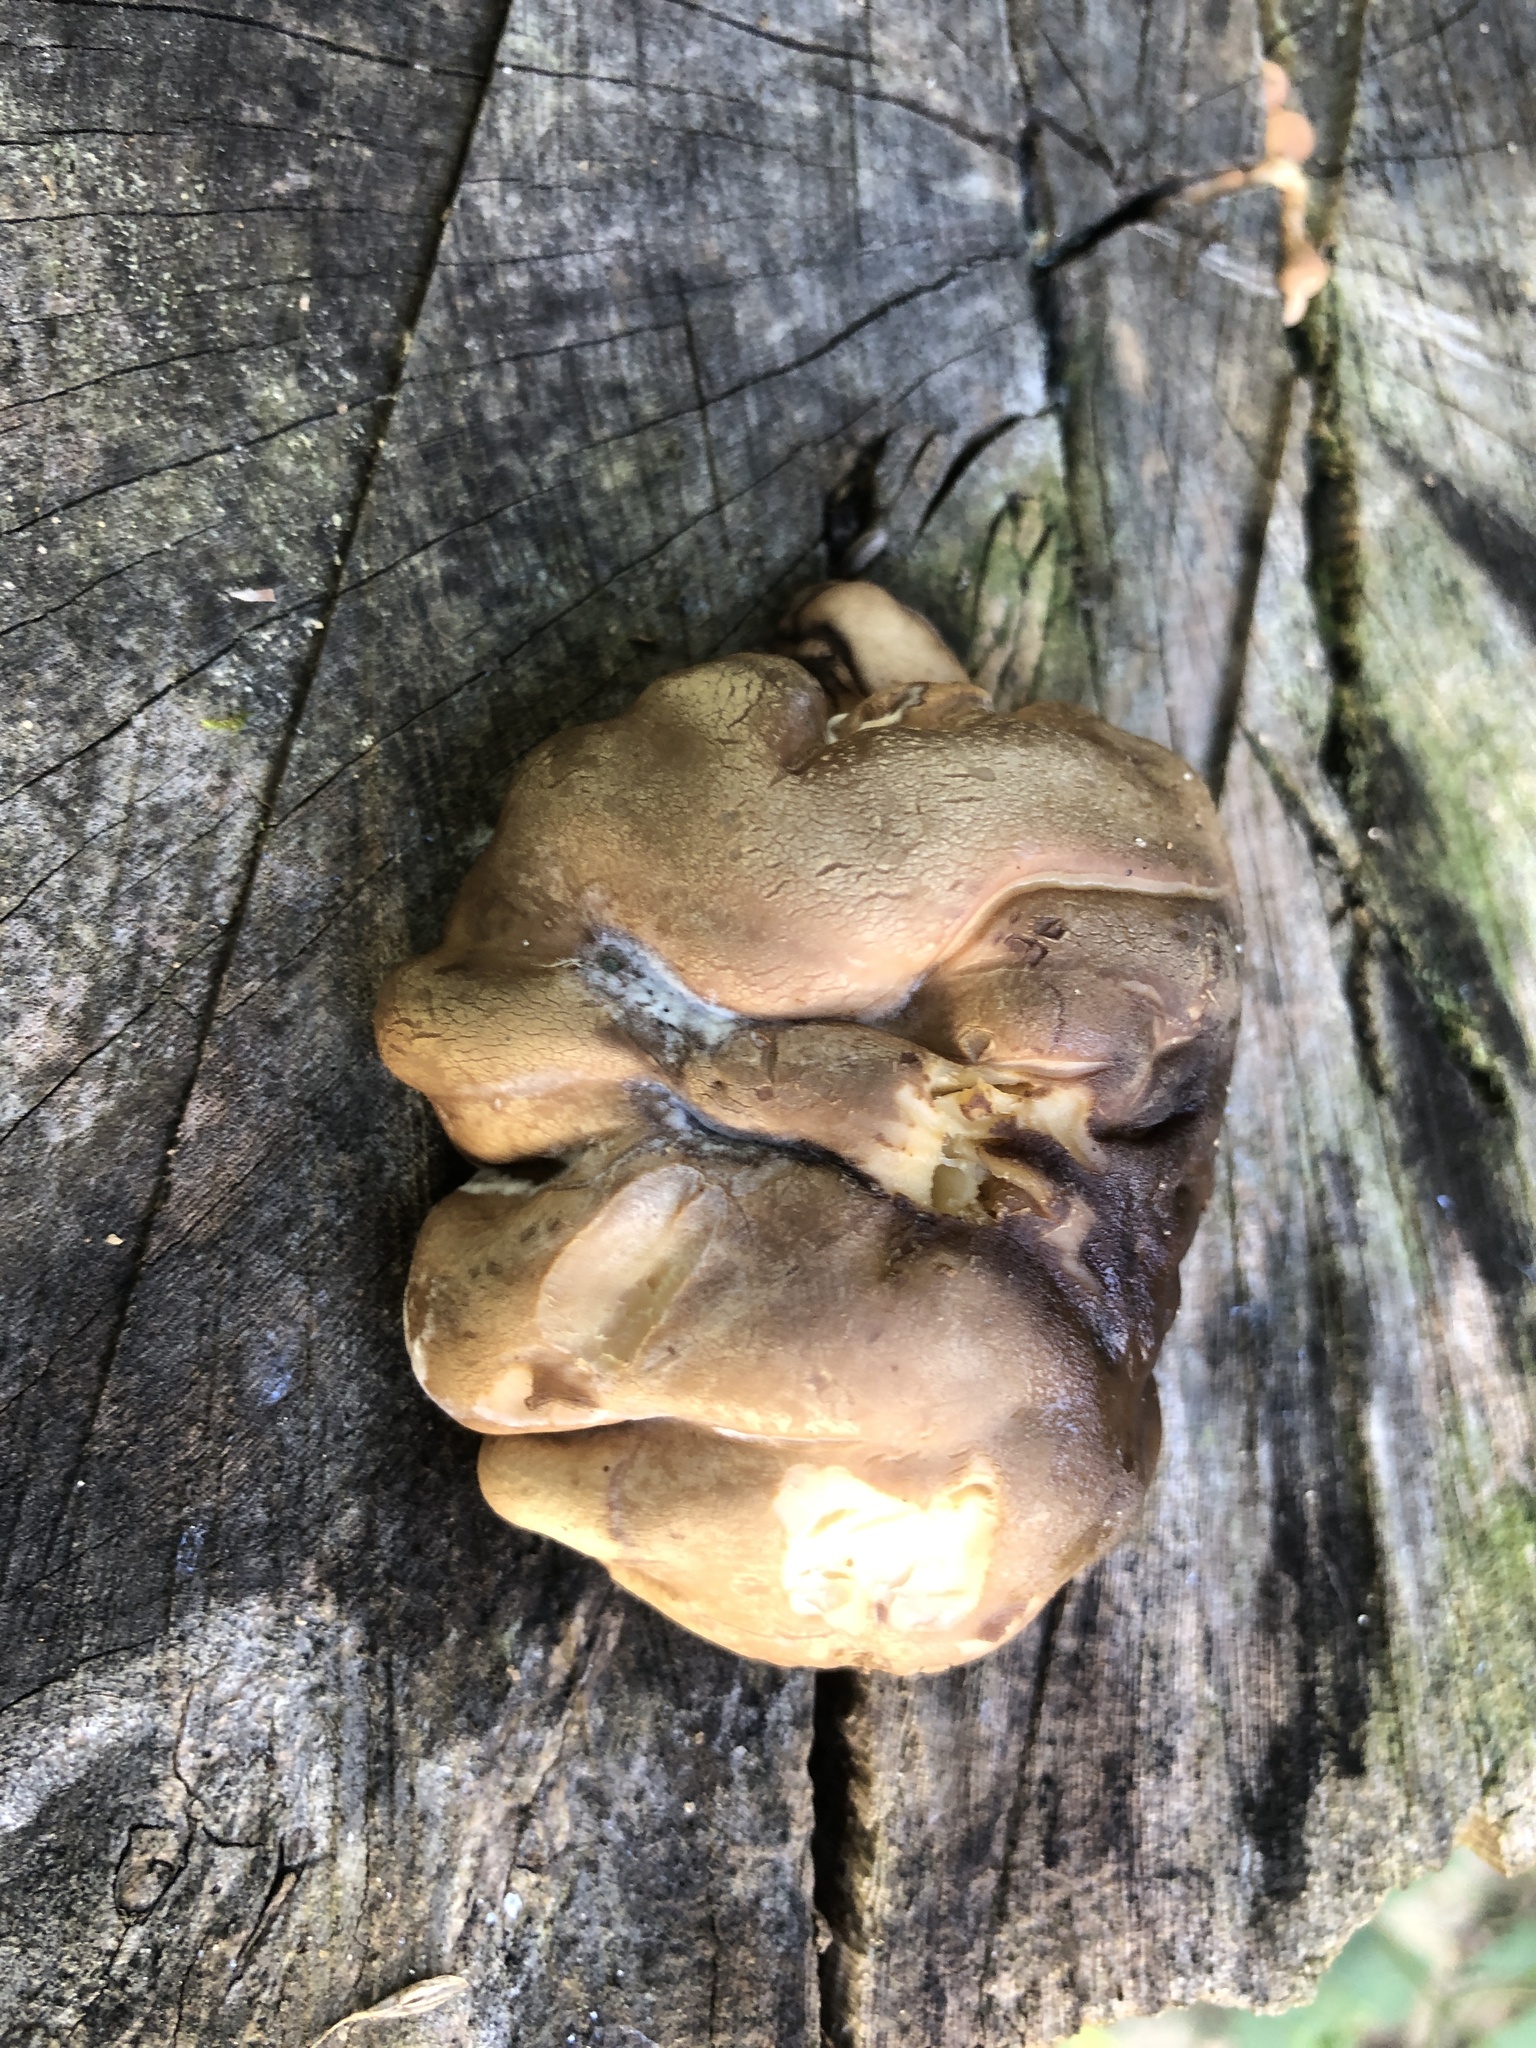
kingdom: Fungi
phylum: Ascomycota
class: Sordariomycetes
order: Hypocreales
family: Hypocreaceae
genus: Trichoderma
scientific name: Trichoderma peltatum
